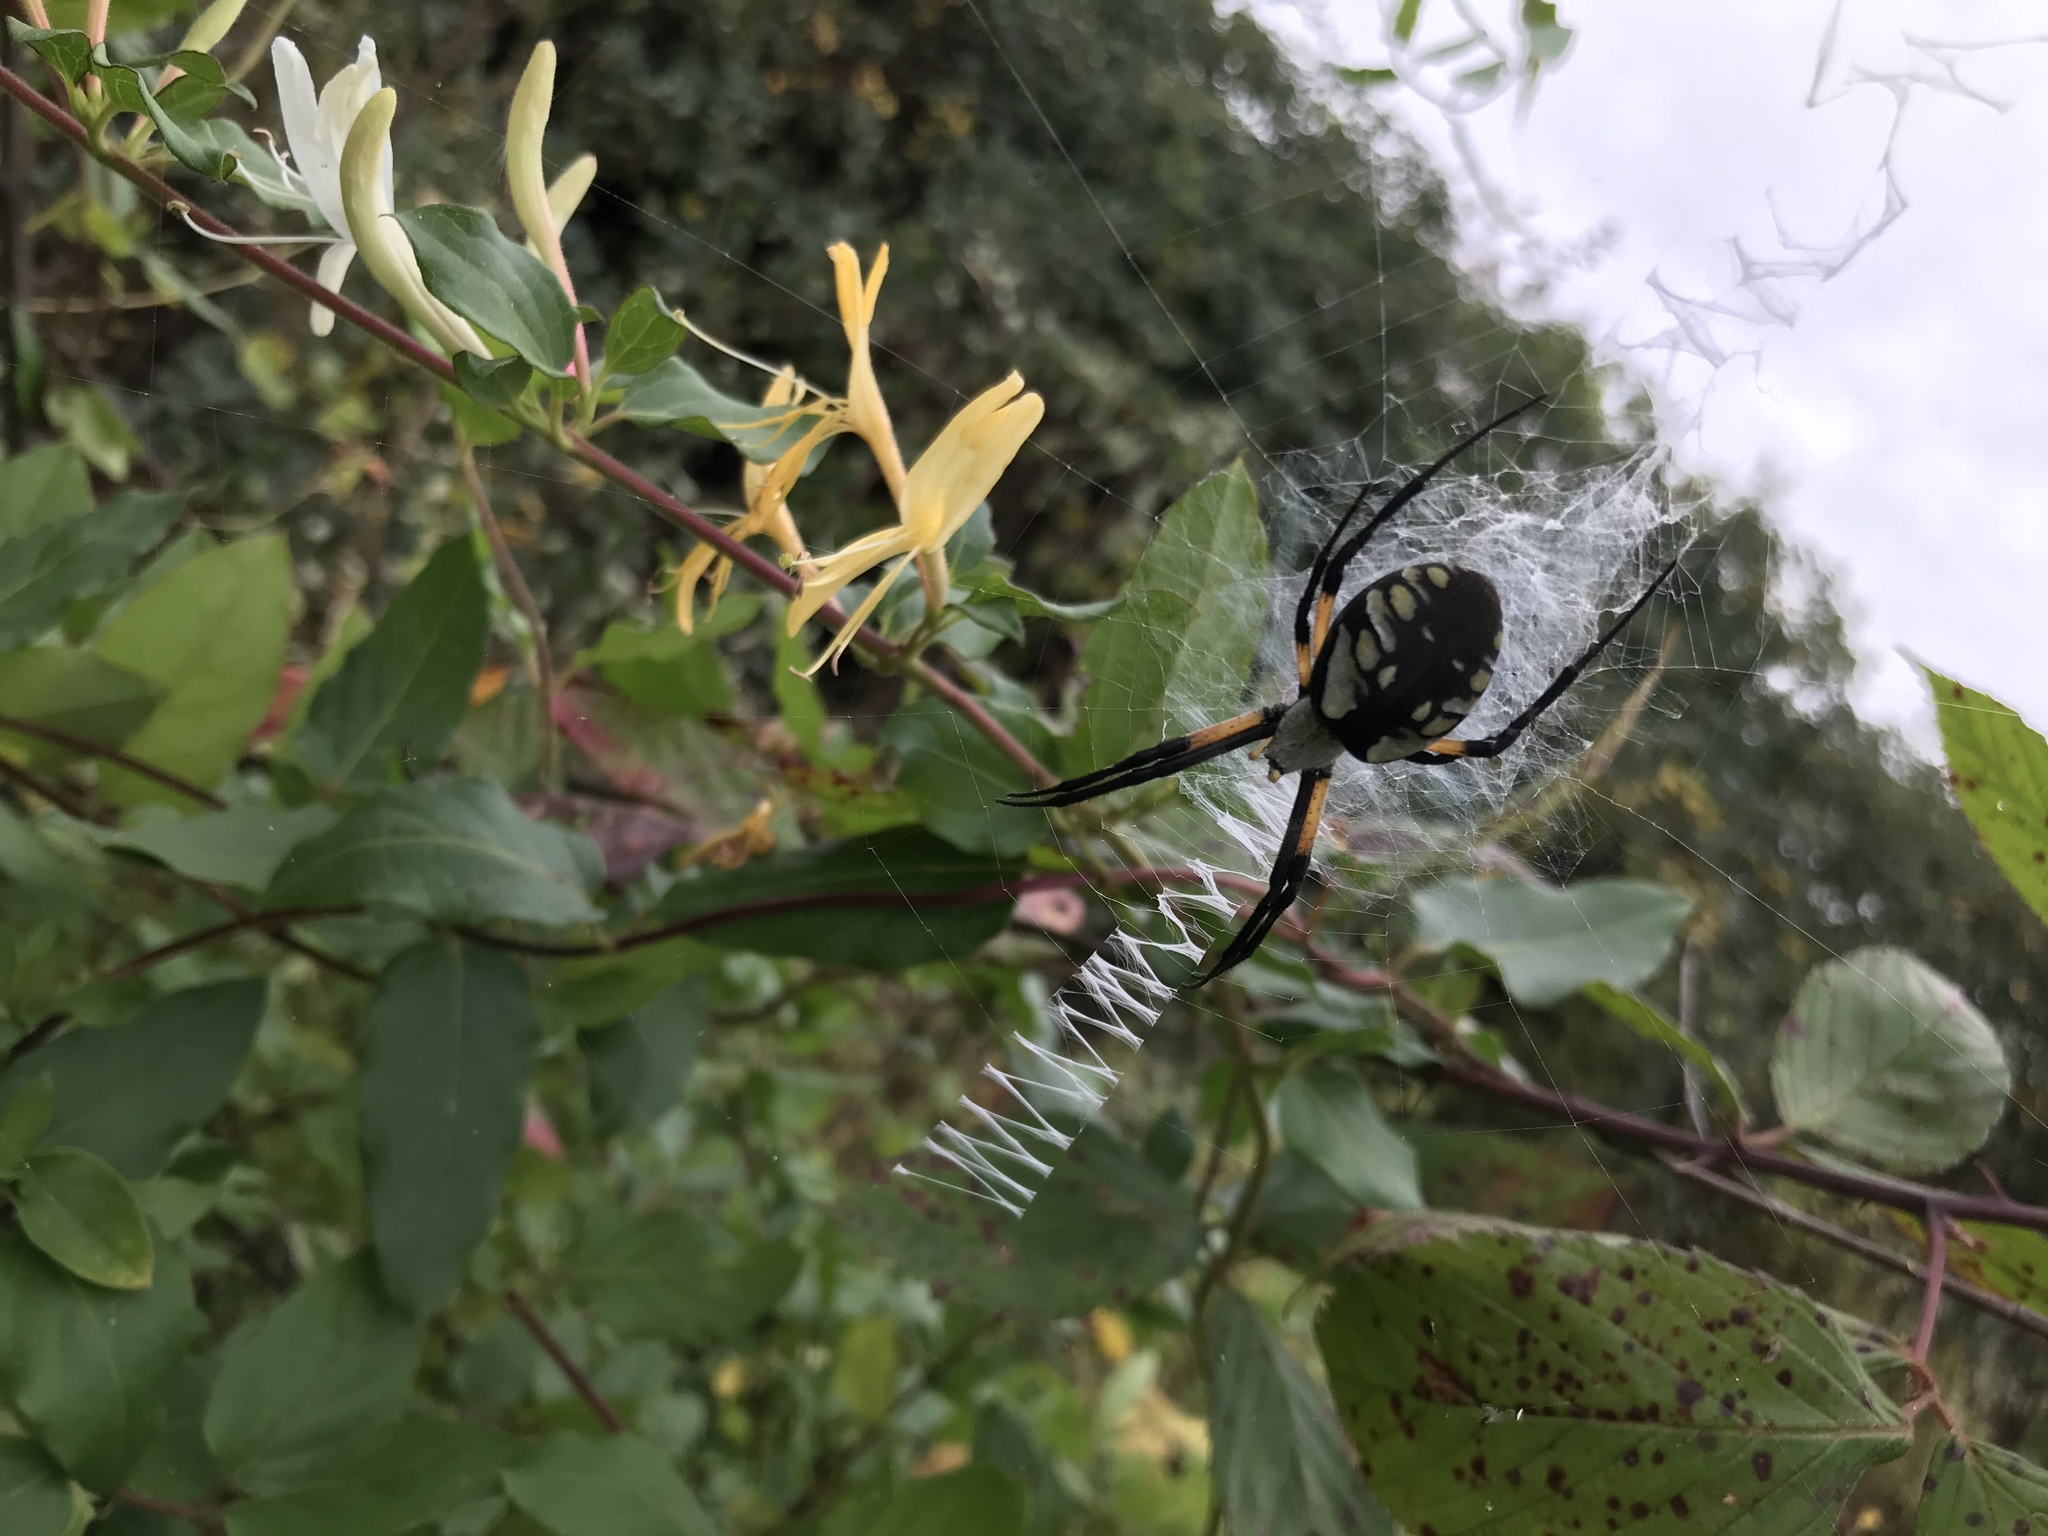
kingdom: Animalia
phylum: Arthropoda
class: Arachnida
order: Araneae
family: Araneidae
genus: Argiope
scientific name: Argiope aurantia
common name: Orb weavers
